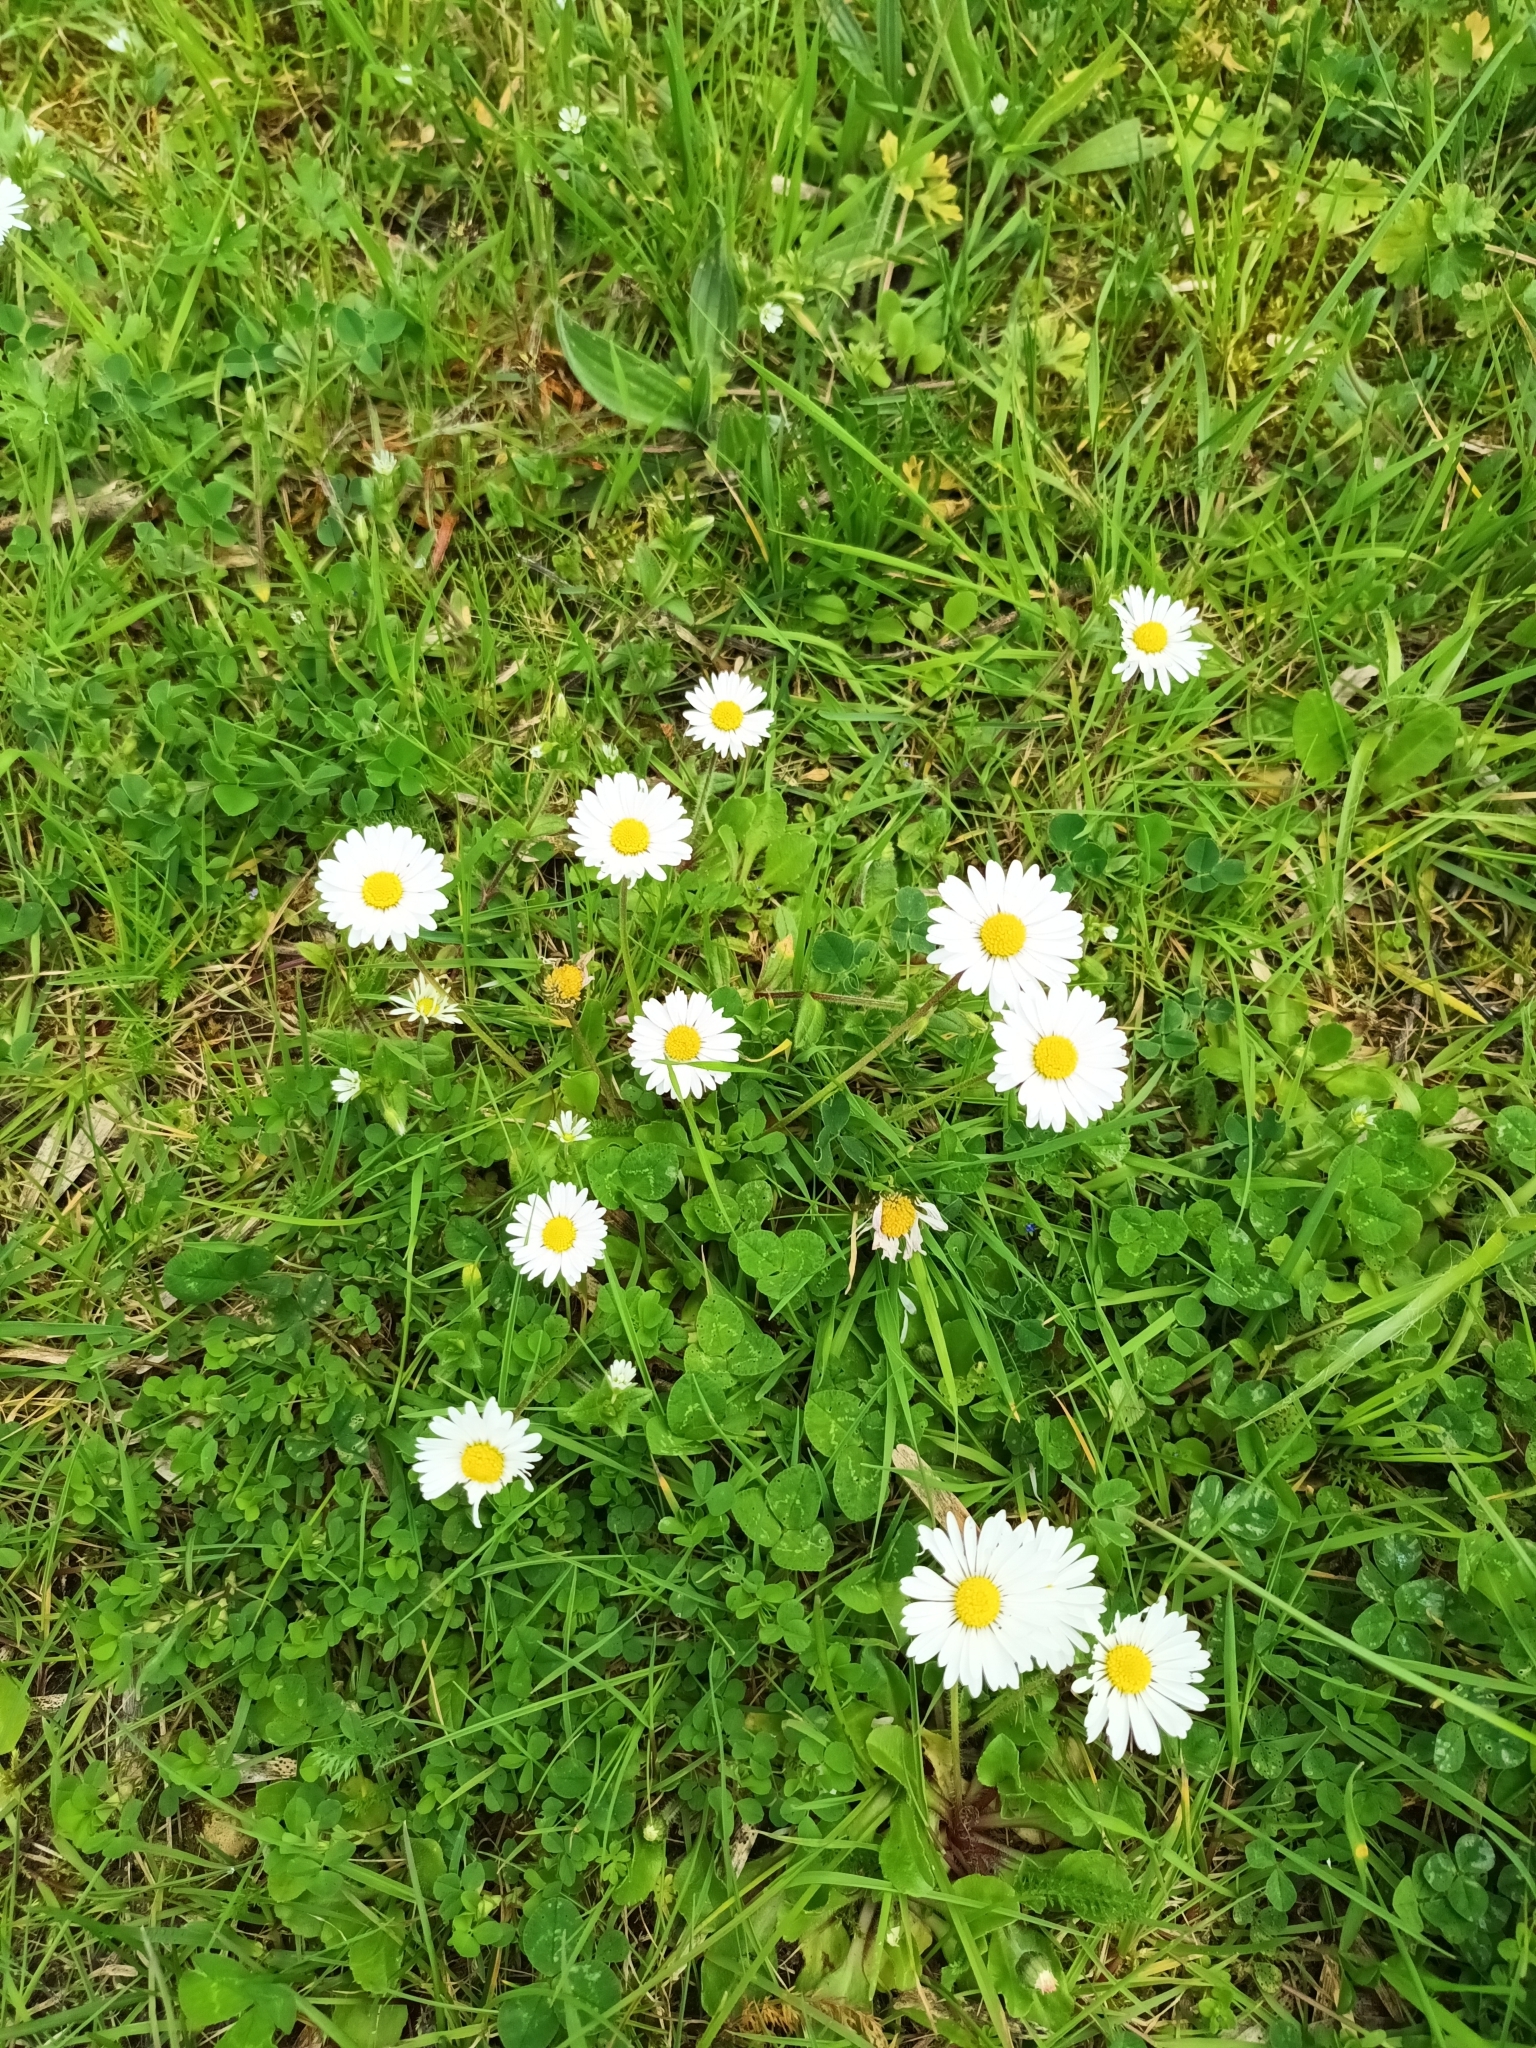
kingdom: Plantae
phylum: Tracheophyta
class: Magnoliopsida
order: Asterales
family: Asteraceae
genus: Bellis
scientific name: Bellis perennis
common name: Lawndaisy
